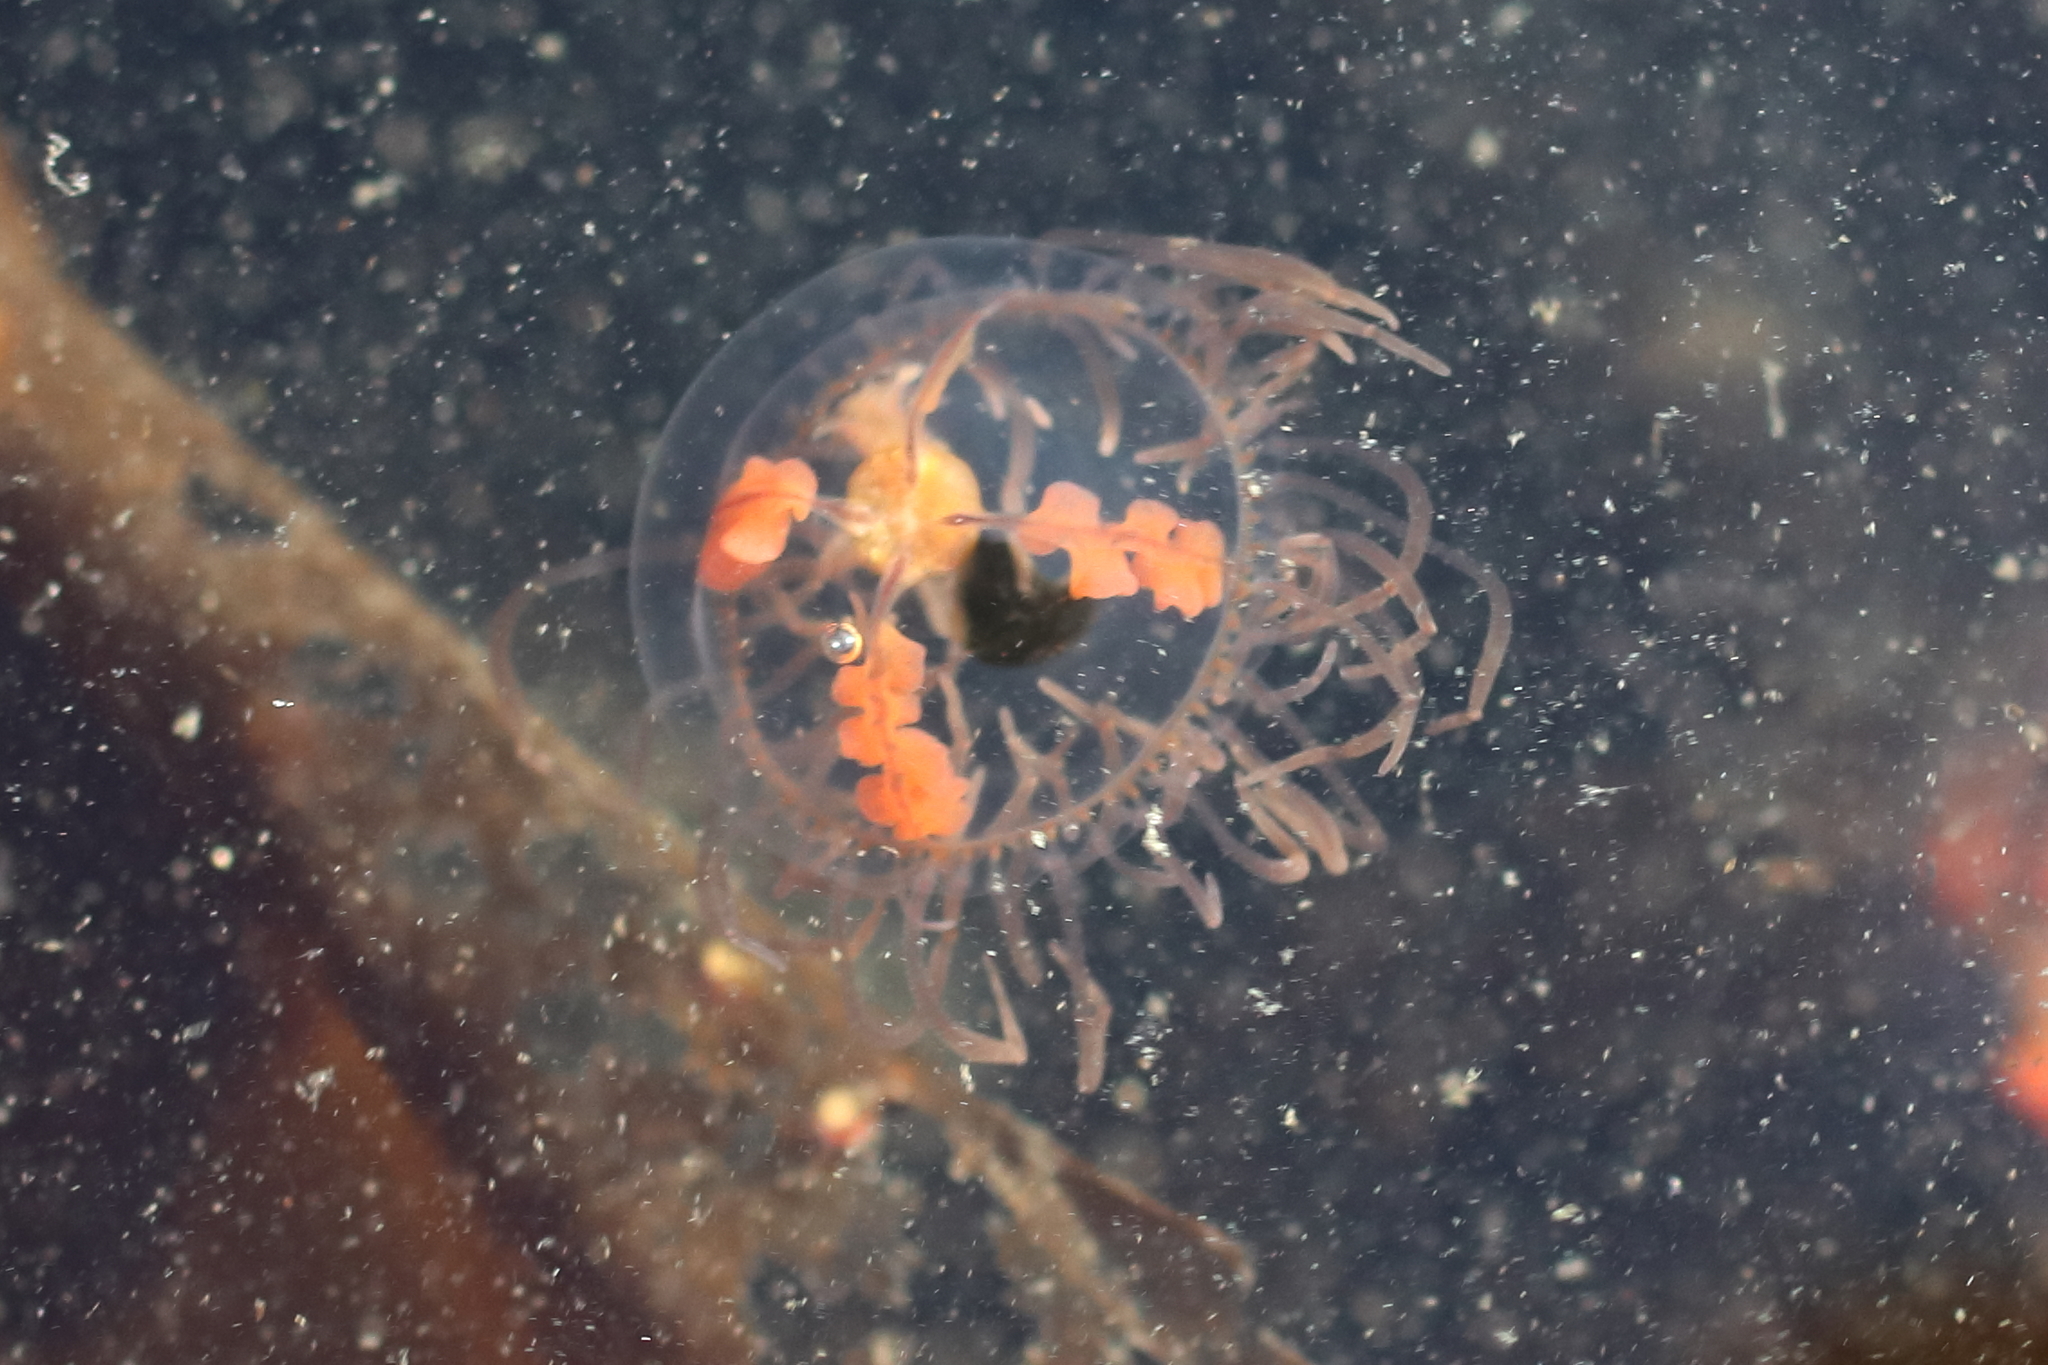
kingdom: Animalia
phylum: Cnidaria
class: Hydrozoa
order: Limnomedusae
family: Olindiidae
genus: Gonionemus
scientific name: Gonionemus vertens
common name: Clinging jellyfish
